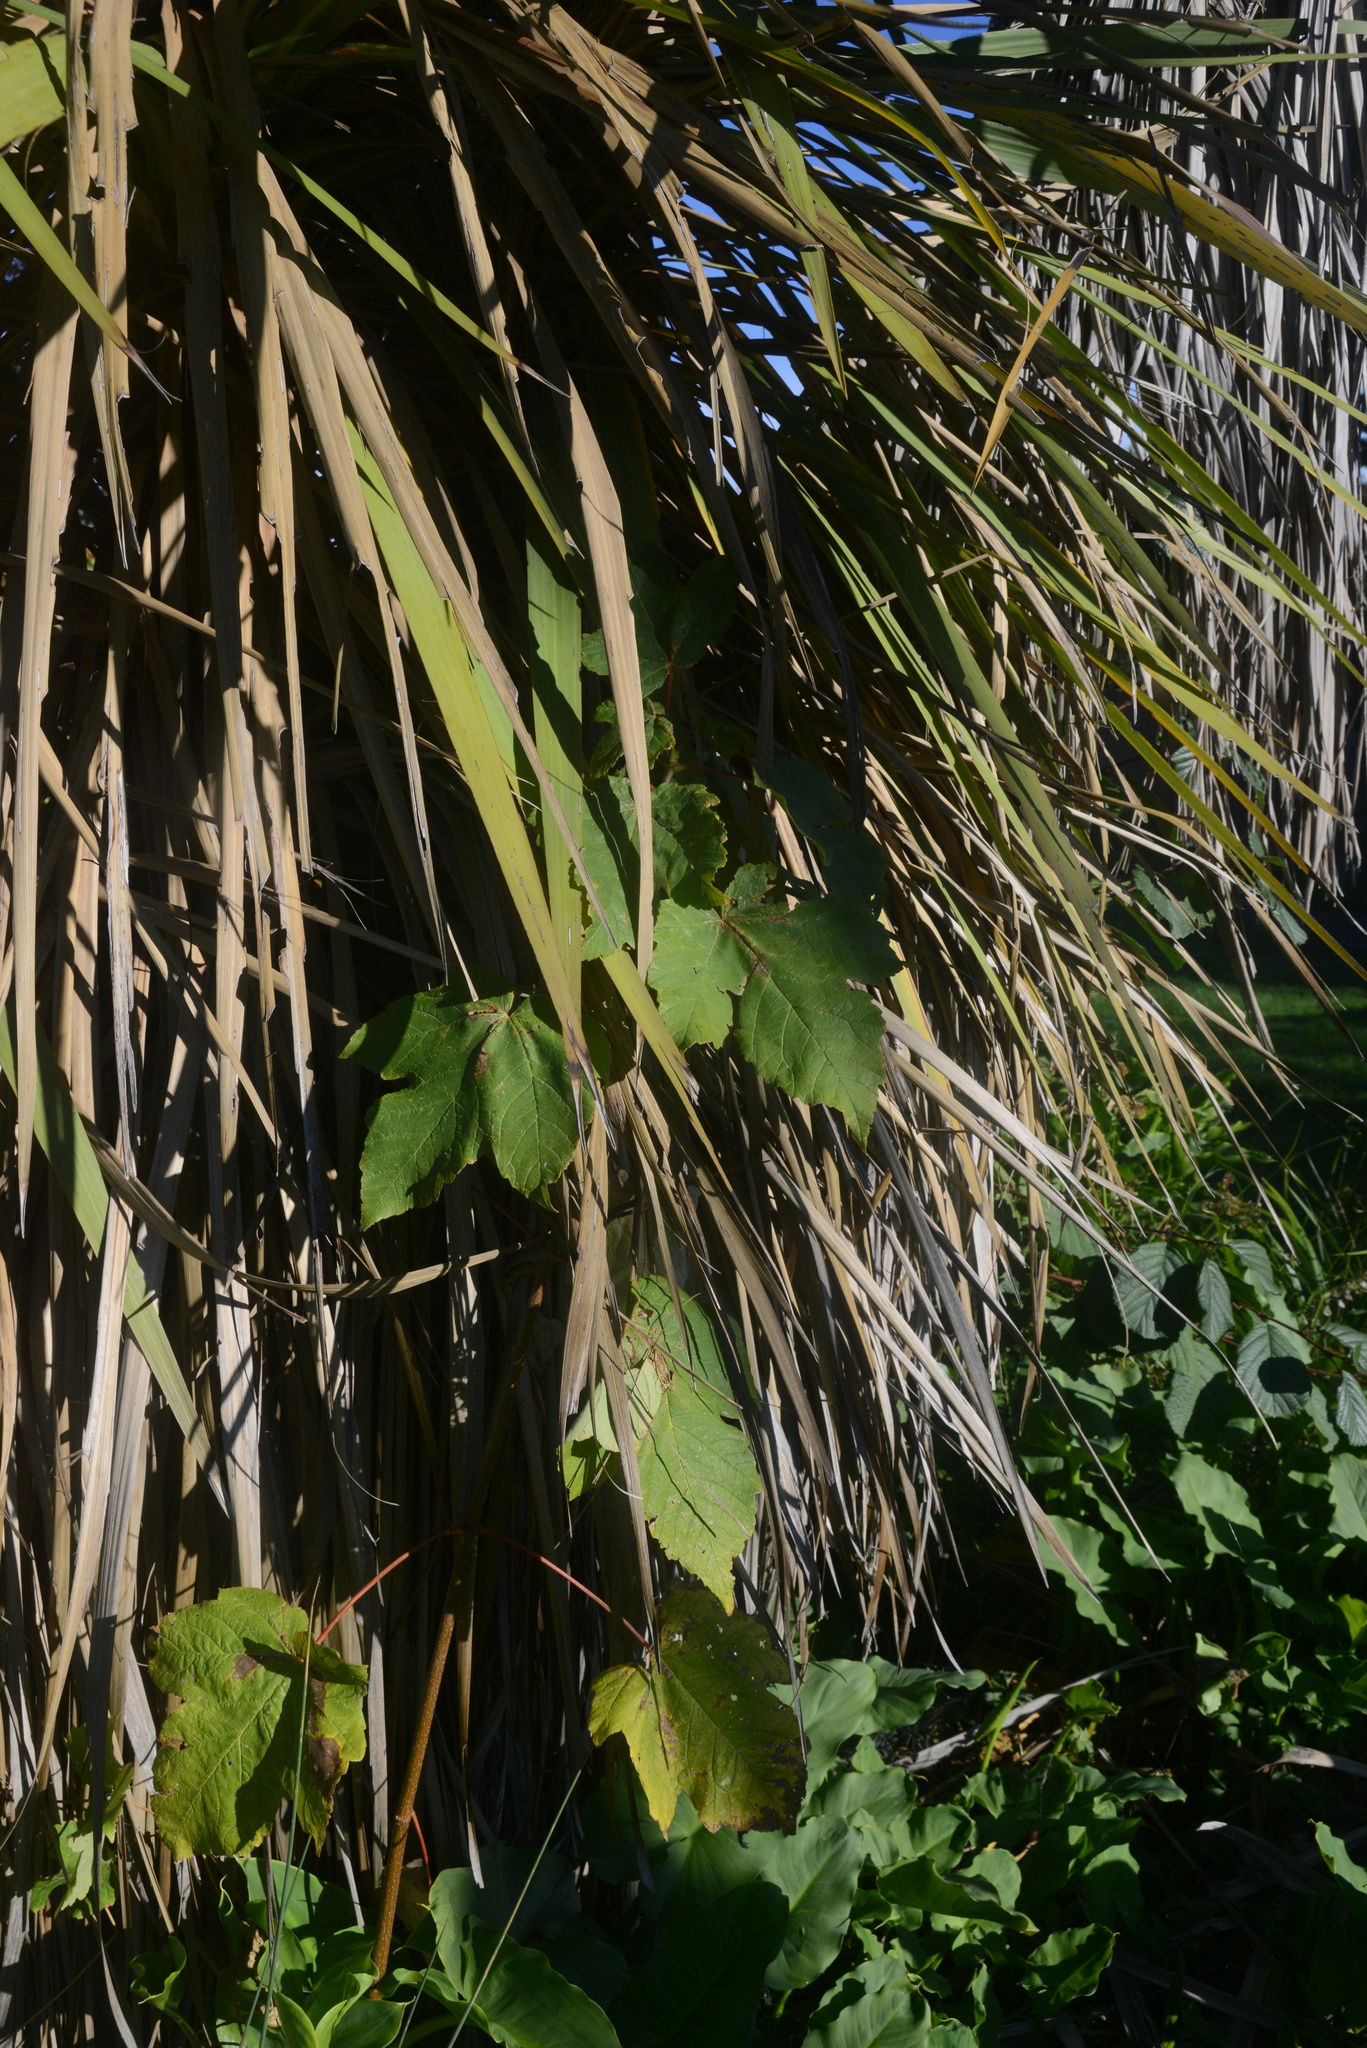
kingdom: Plantae
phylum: Tracheophyta
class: Magnoliopsida
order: Sapindales
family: Sapindaceae
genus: Acer
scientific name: Acer pseudoplatanus
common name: Sycamore
